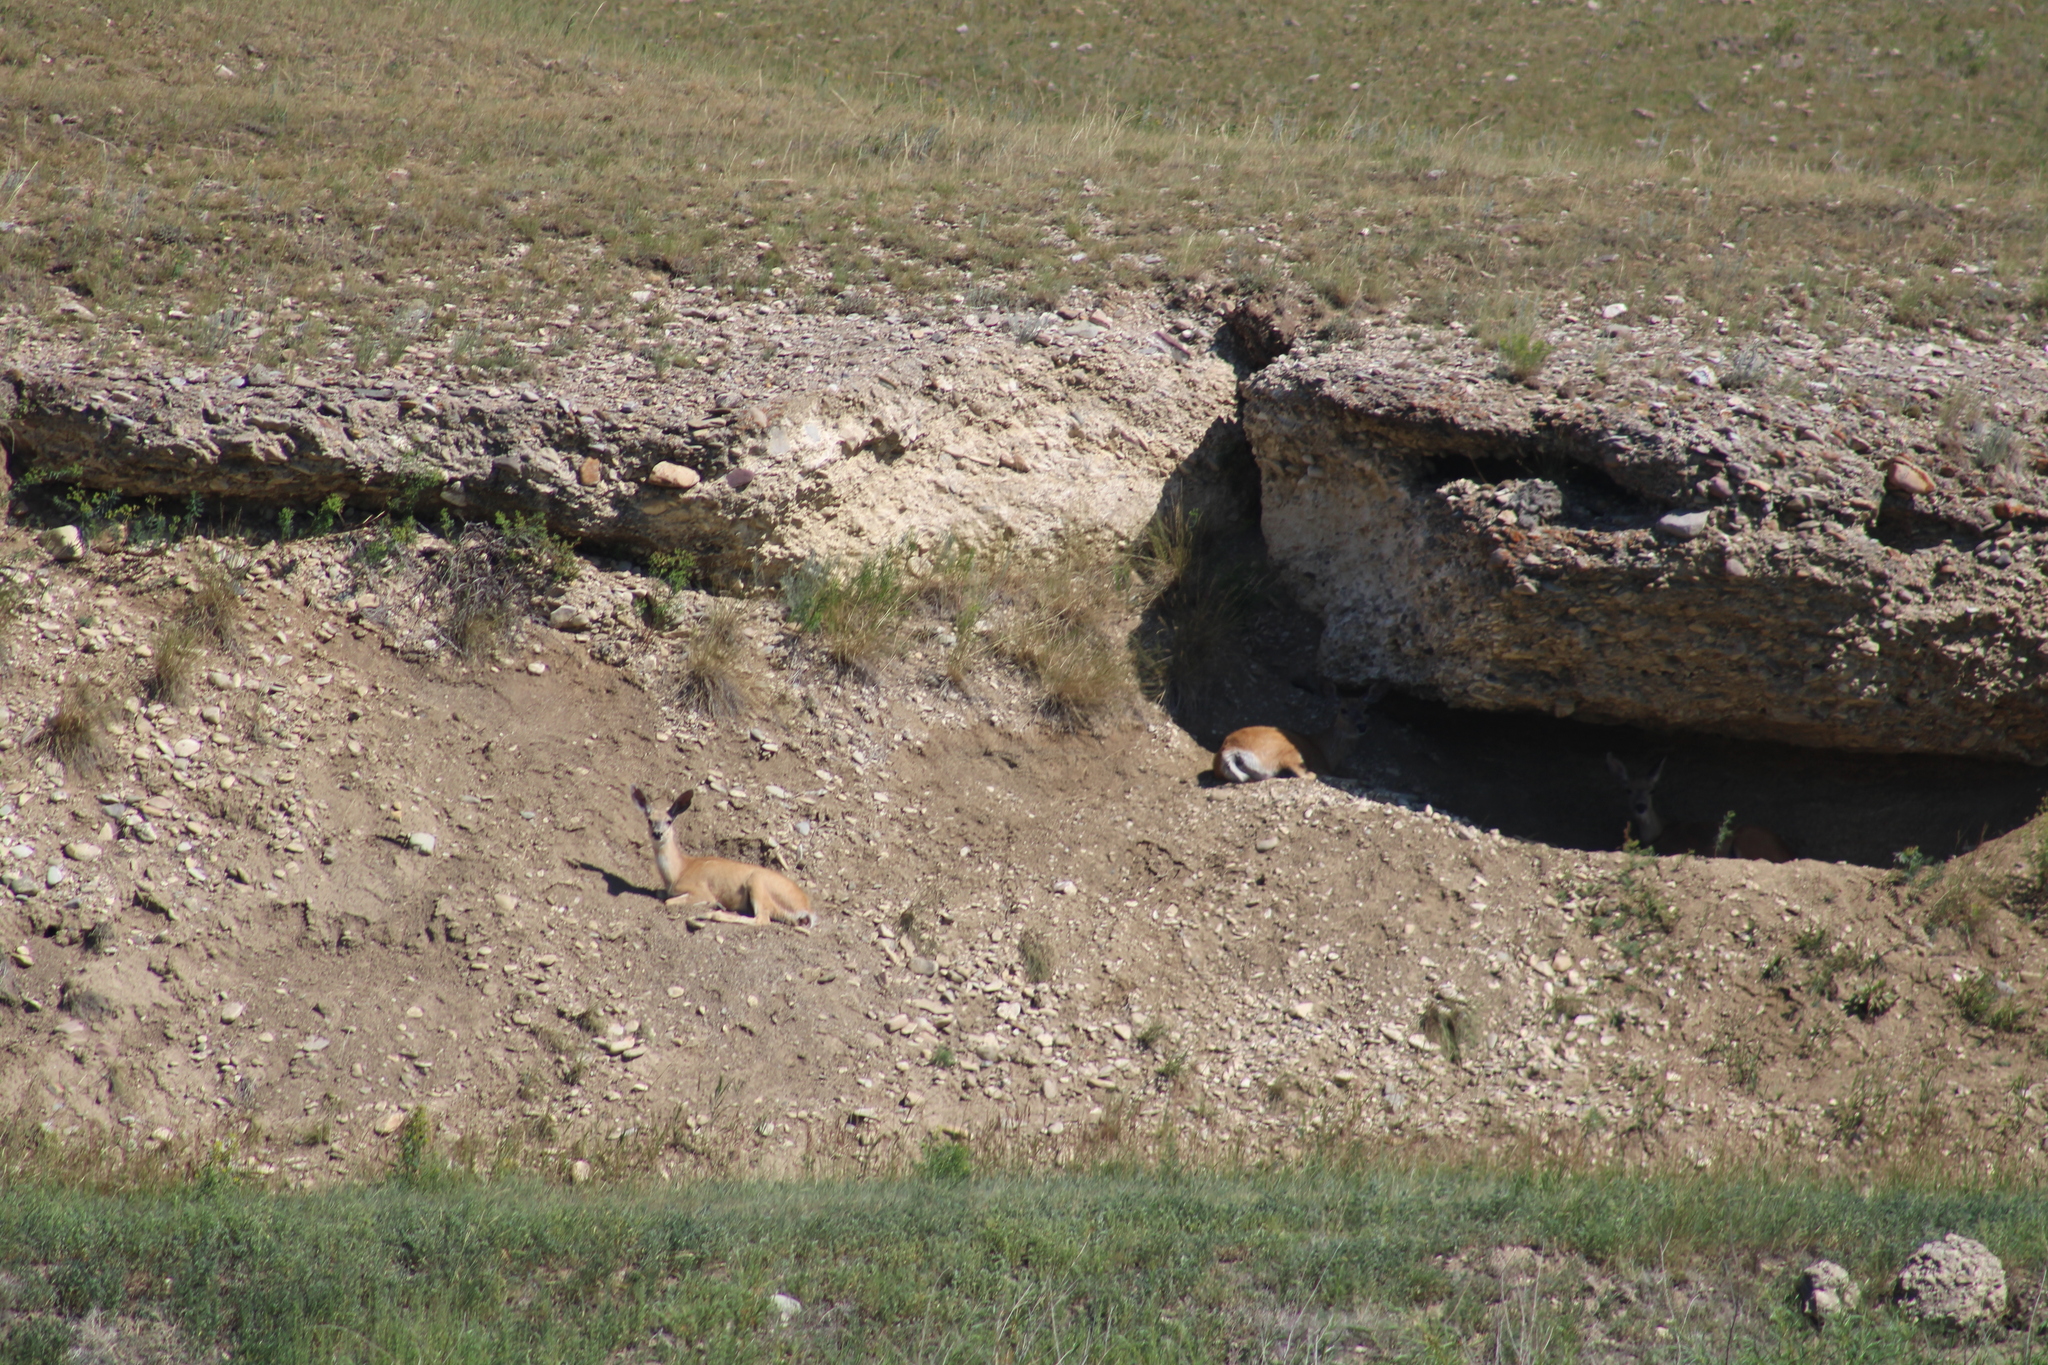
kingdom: Animalia
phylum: Chordata
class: Mammalia
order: Artiodactyla
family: Cervidae
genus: Odocoileus
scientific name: Odocoileus hemionus
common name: Mule deer
